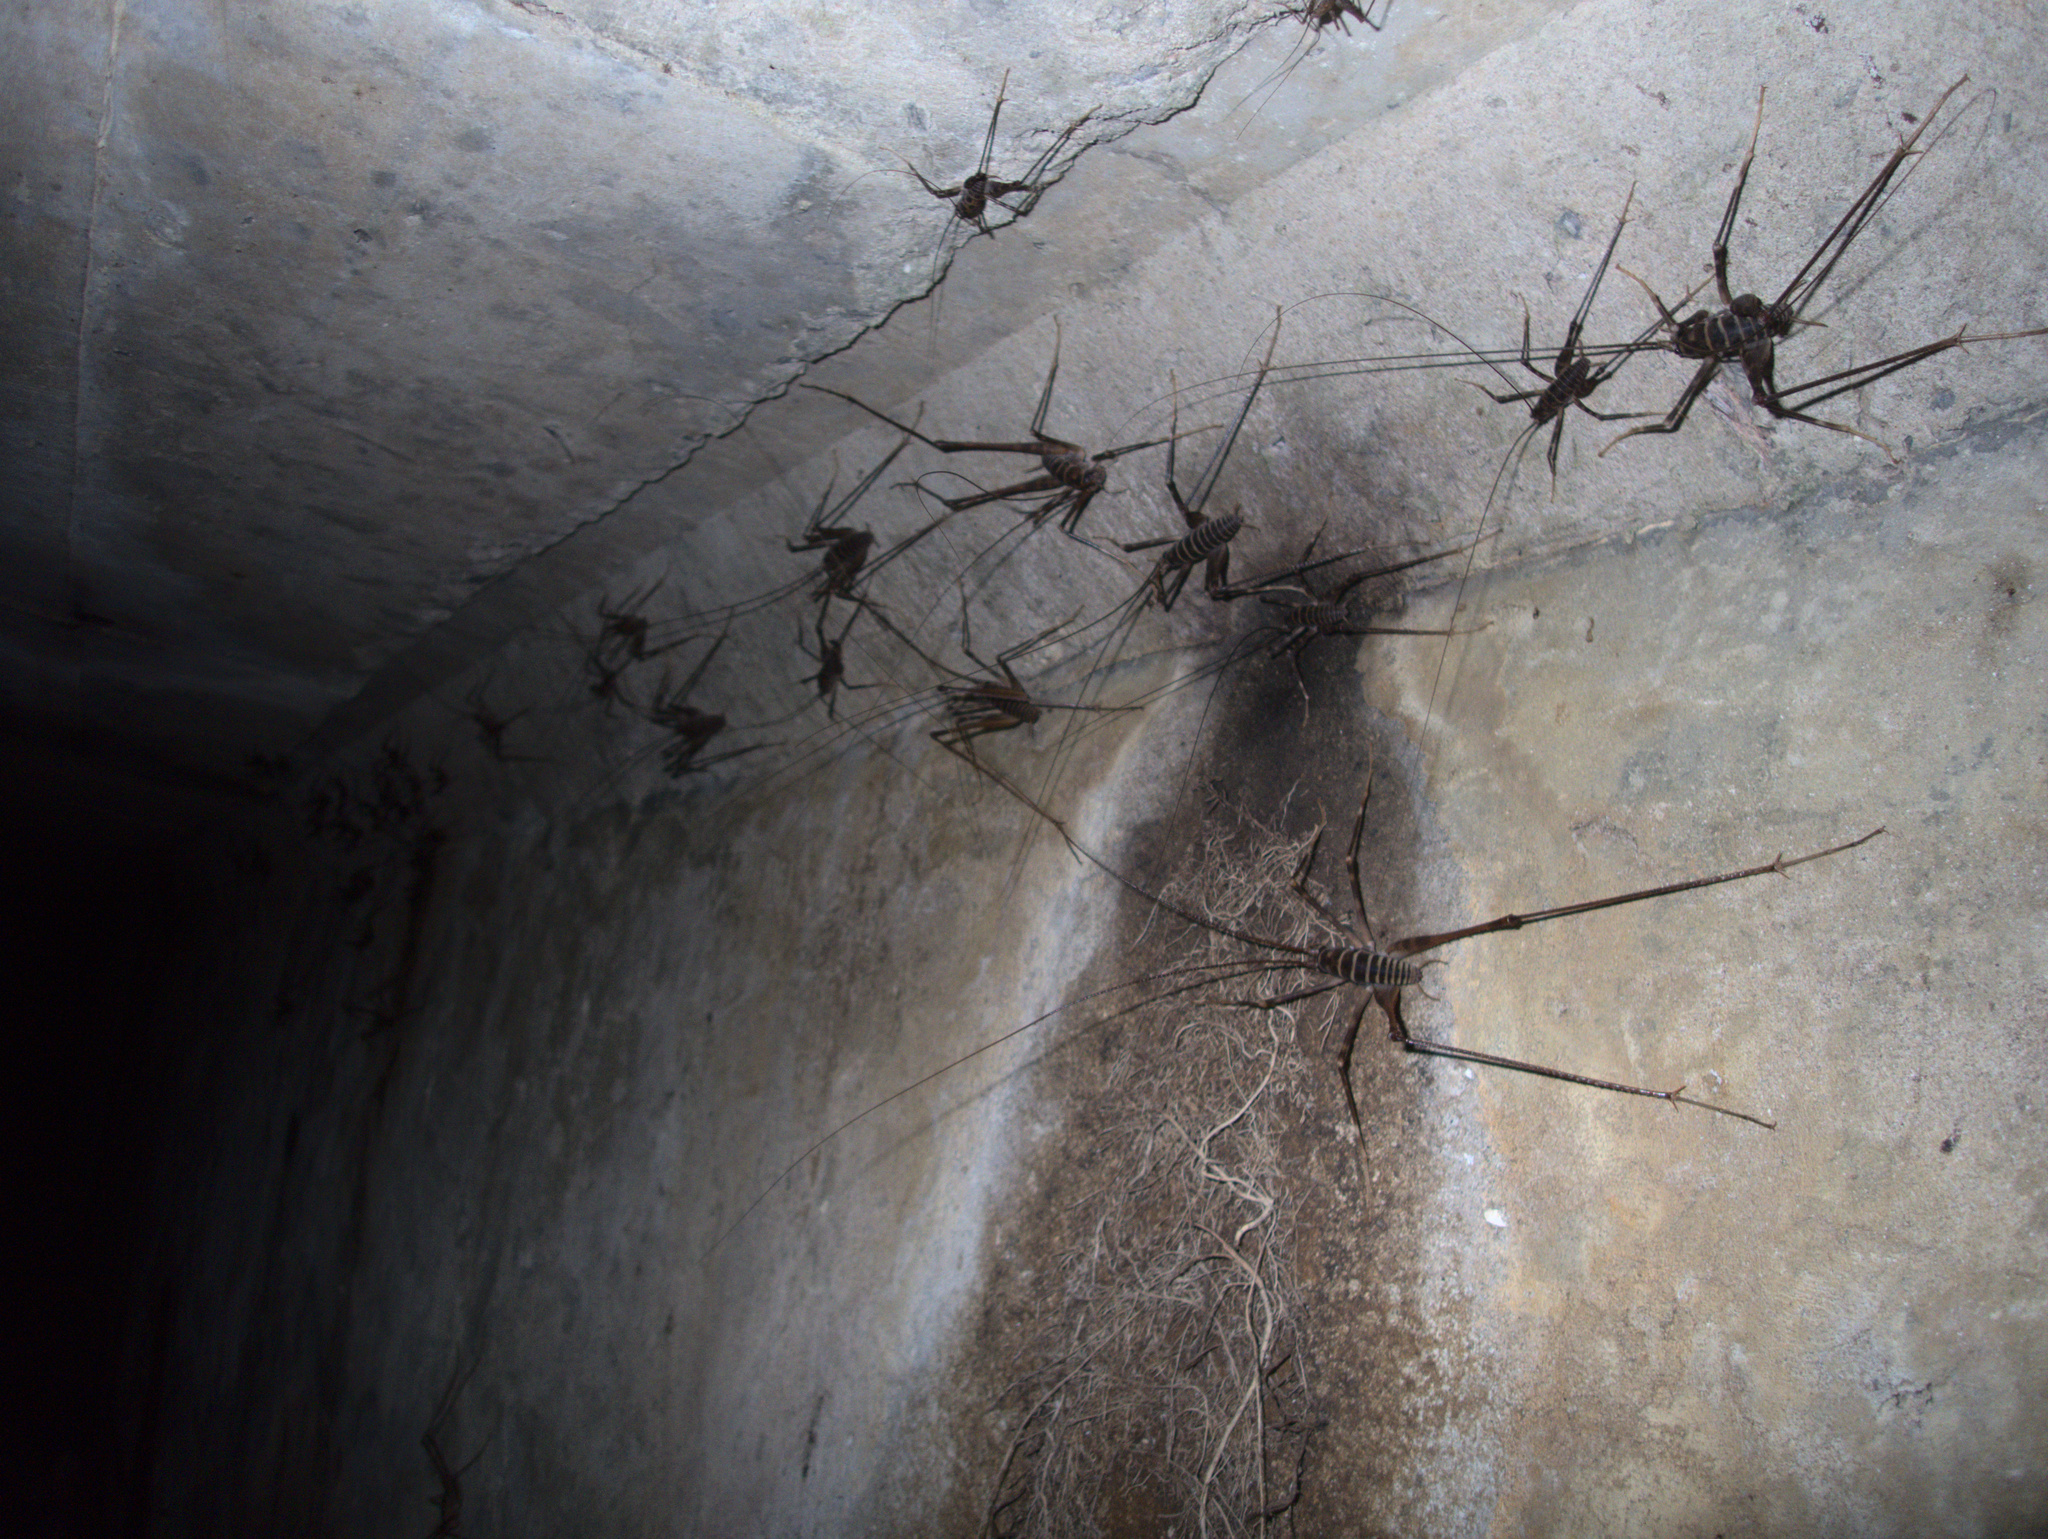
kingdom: Animalia
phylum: Arthropoda
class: Insecta
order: Orthoptera
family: Rhaphidophoridae
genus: Pachyrhamma
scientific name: Pachyrhamma acanthocera
